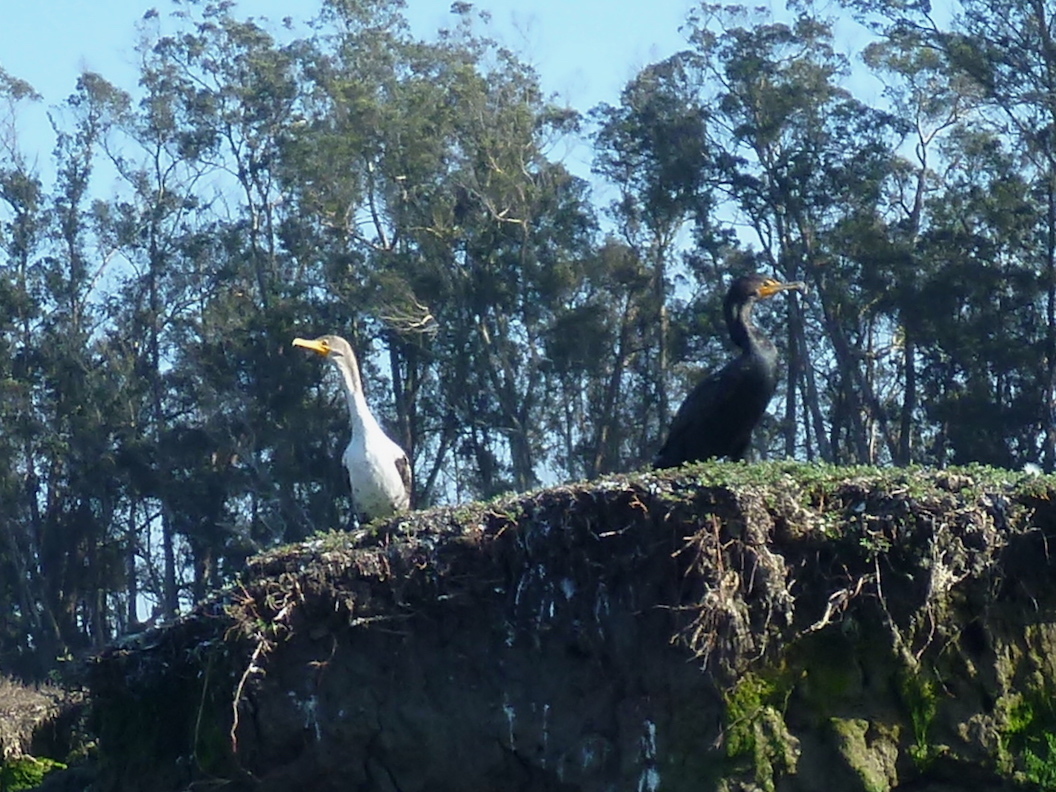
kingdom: Animalia
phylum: Chordata
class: Aves
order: Suliformes
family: Phalacrocoracidae
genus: Phalacrocorax
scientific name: Phalacrocorax auritus
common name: Double-crested cormorant
